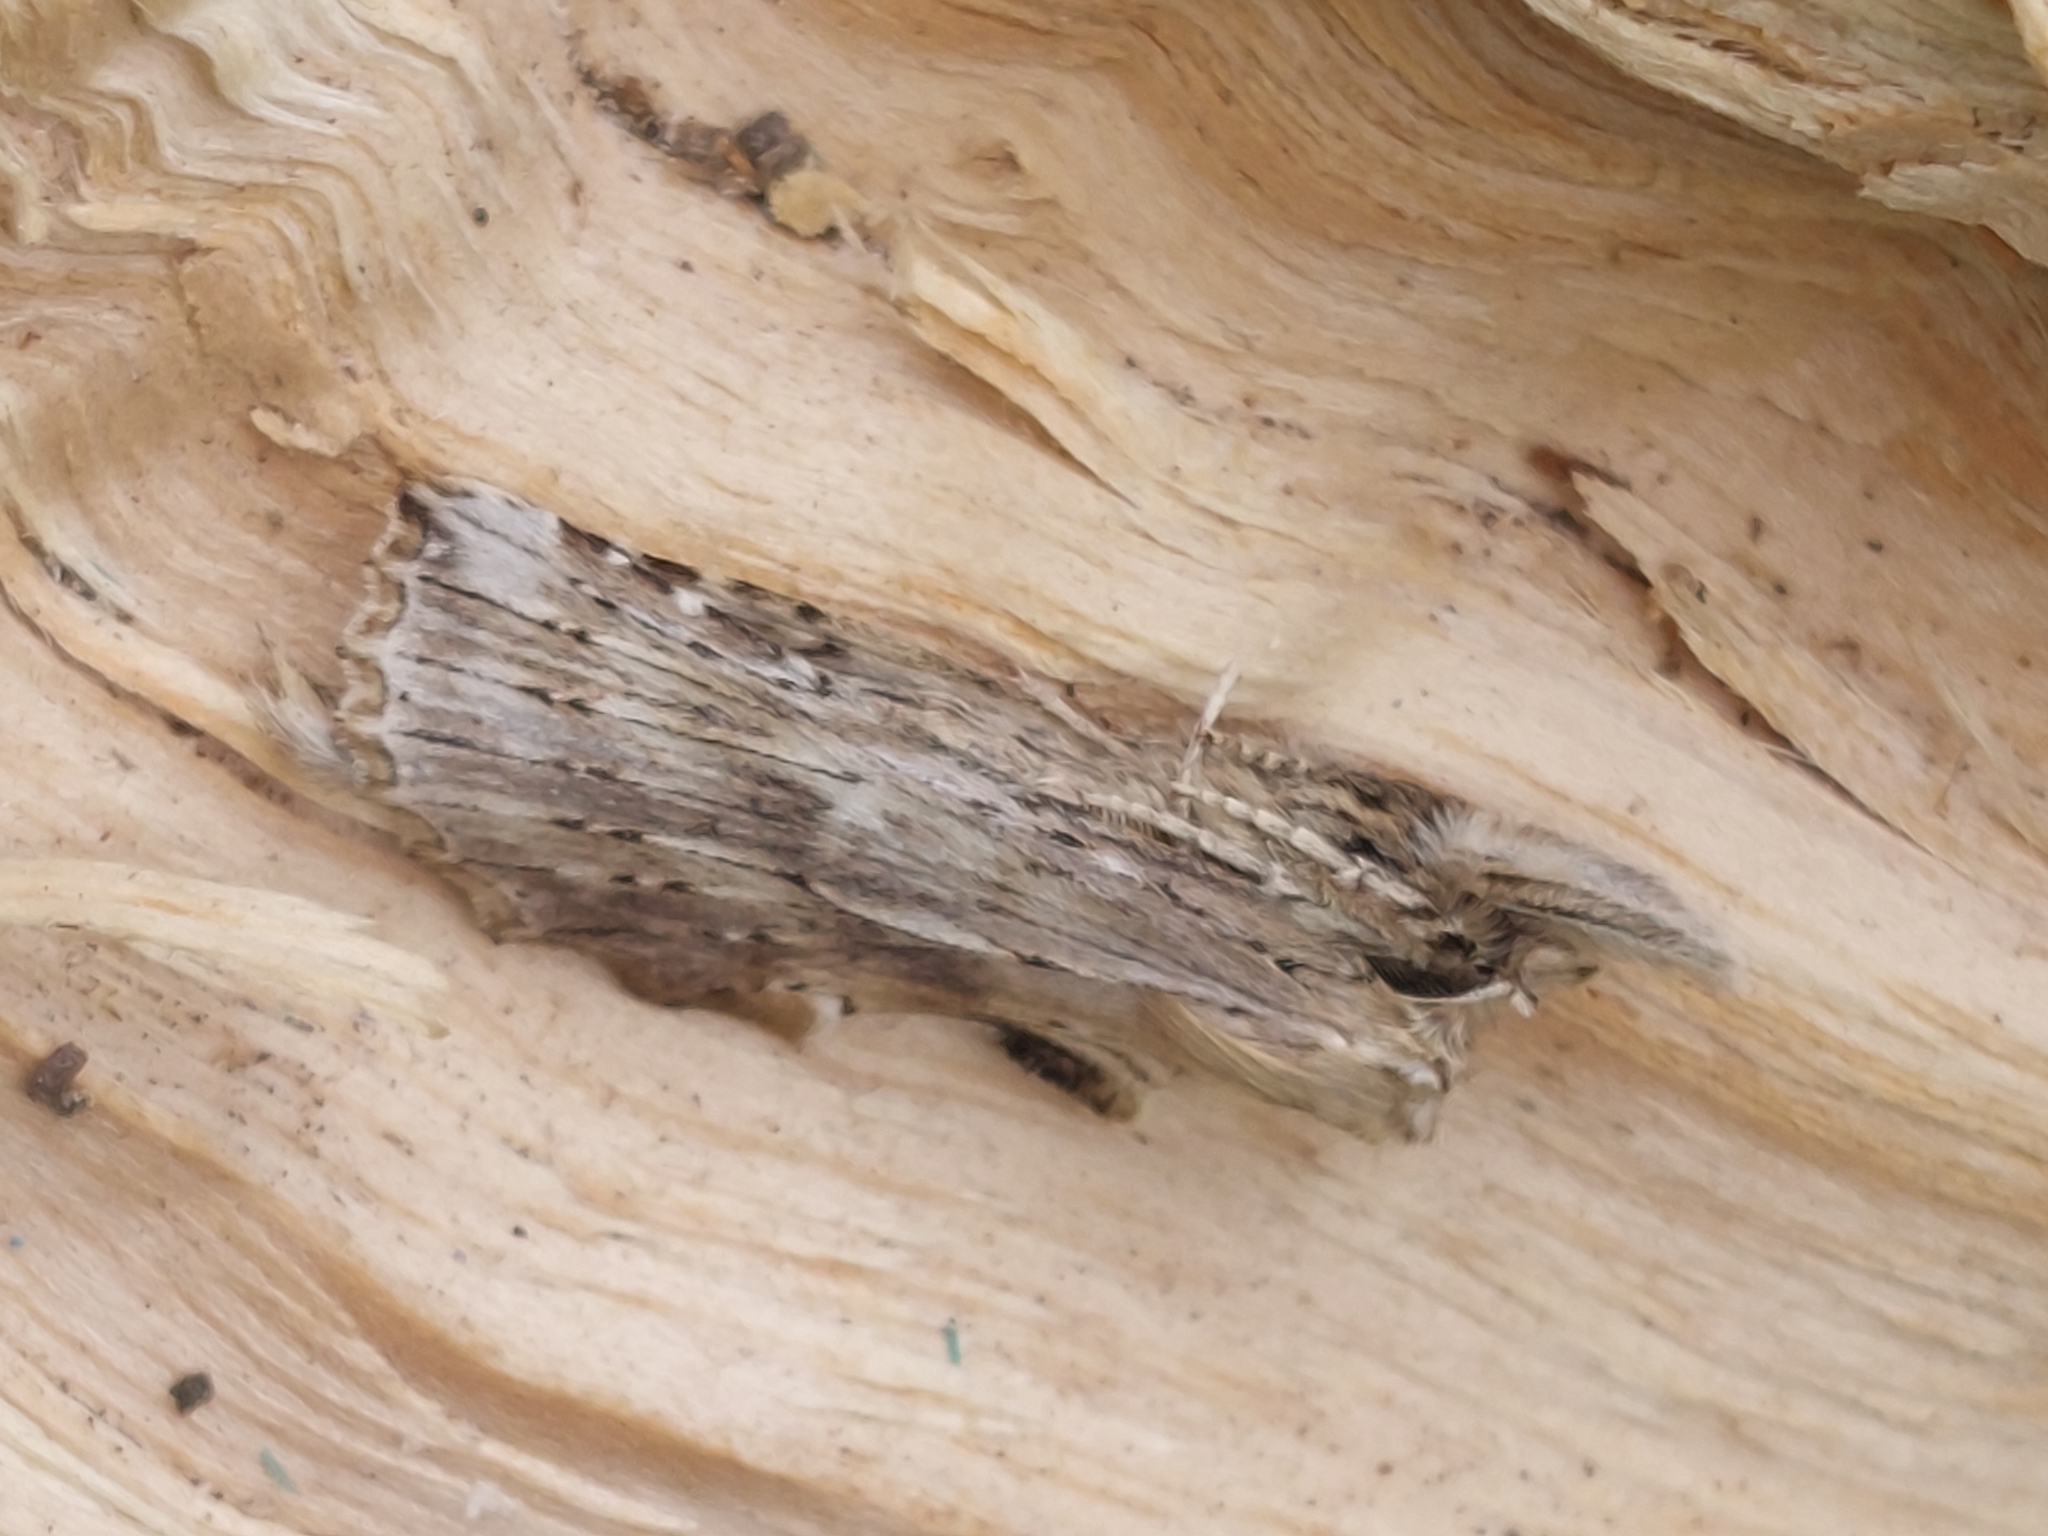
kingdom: Animalia
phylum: Arthropoda
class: Insecta
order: Lepidoptera
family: Notodontidae
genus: Pterostoma
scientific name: Pterostoma palpina
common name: Pale prominent
